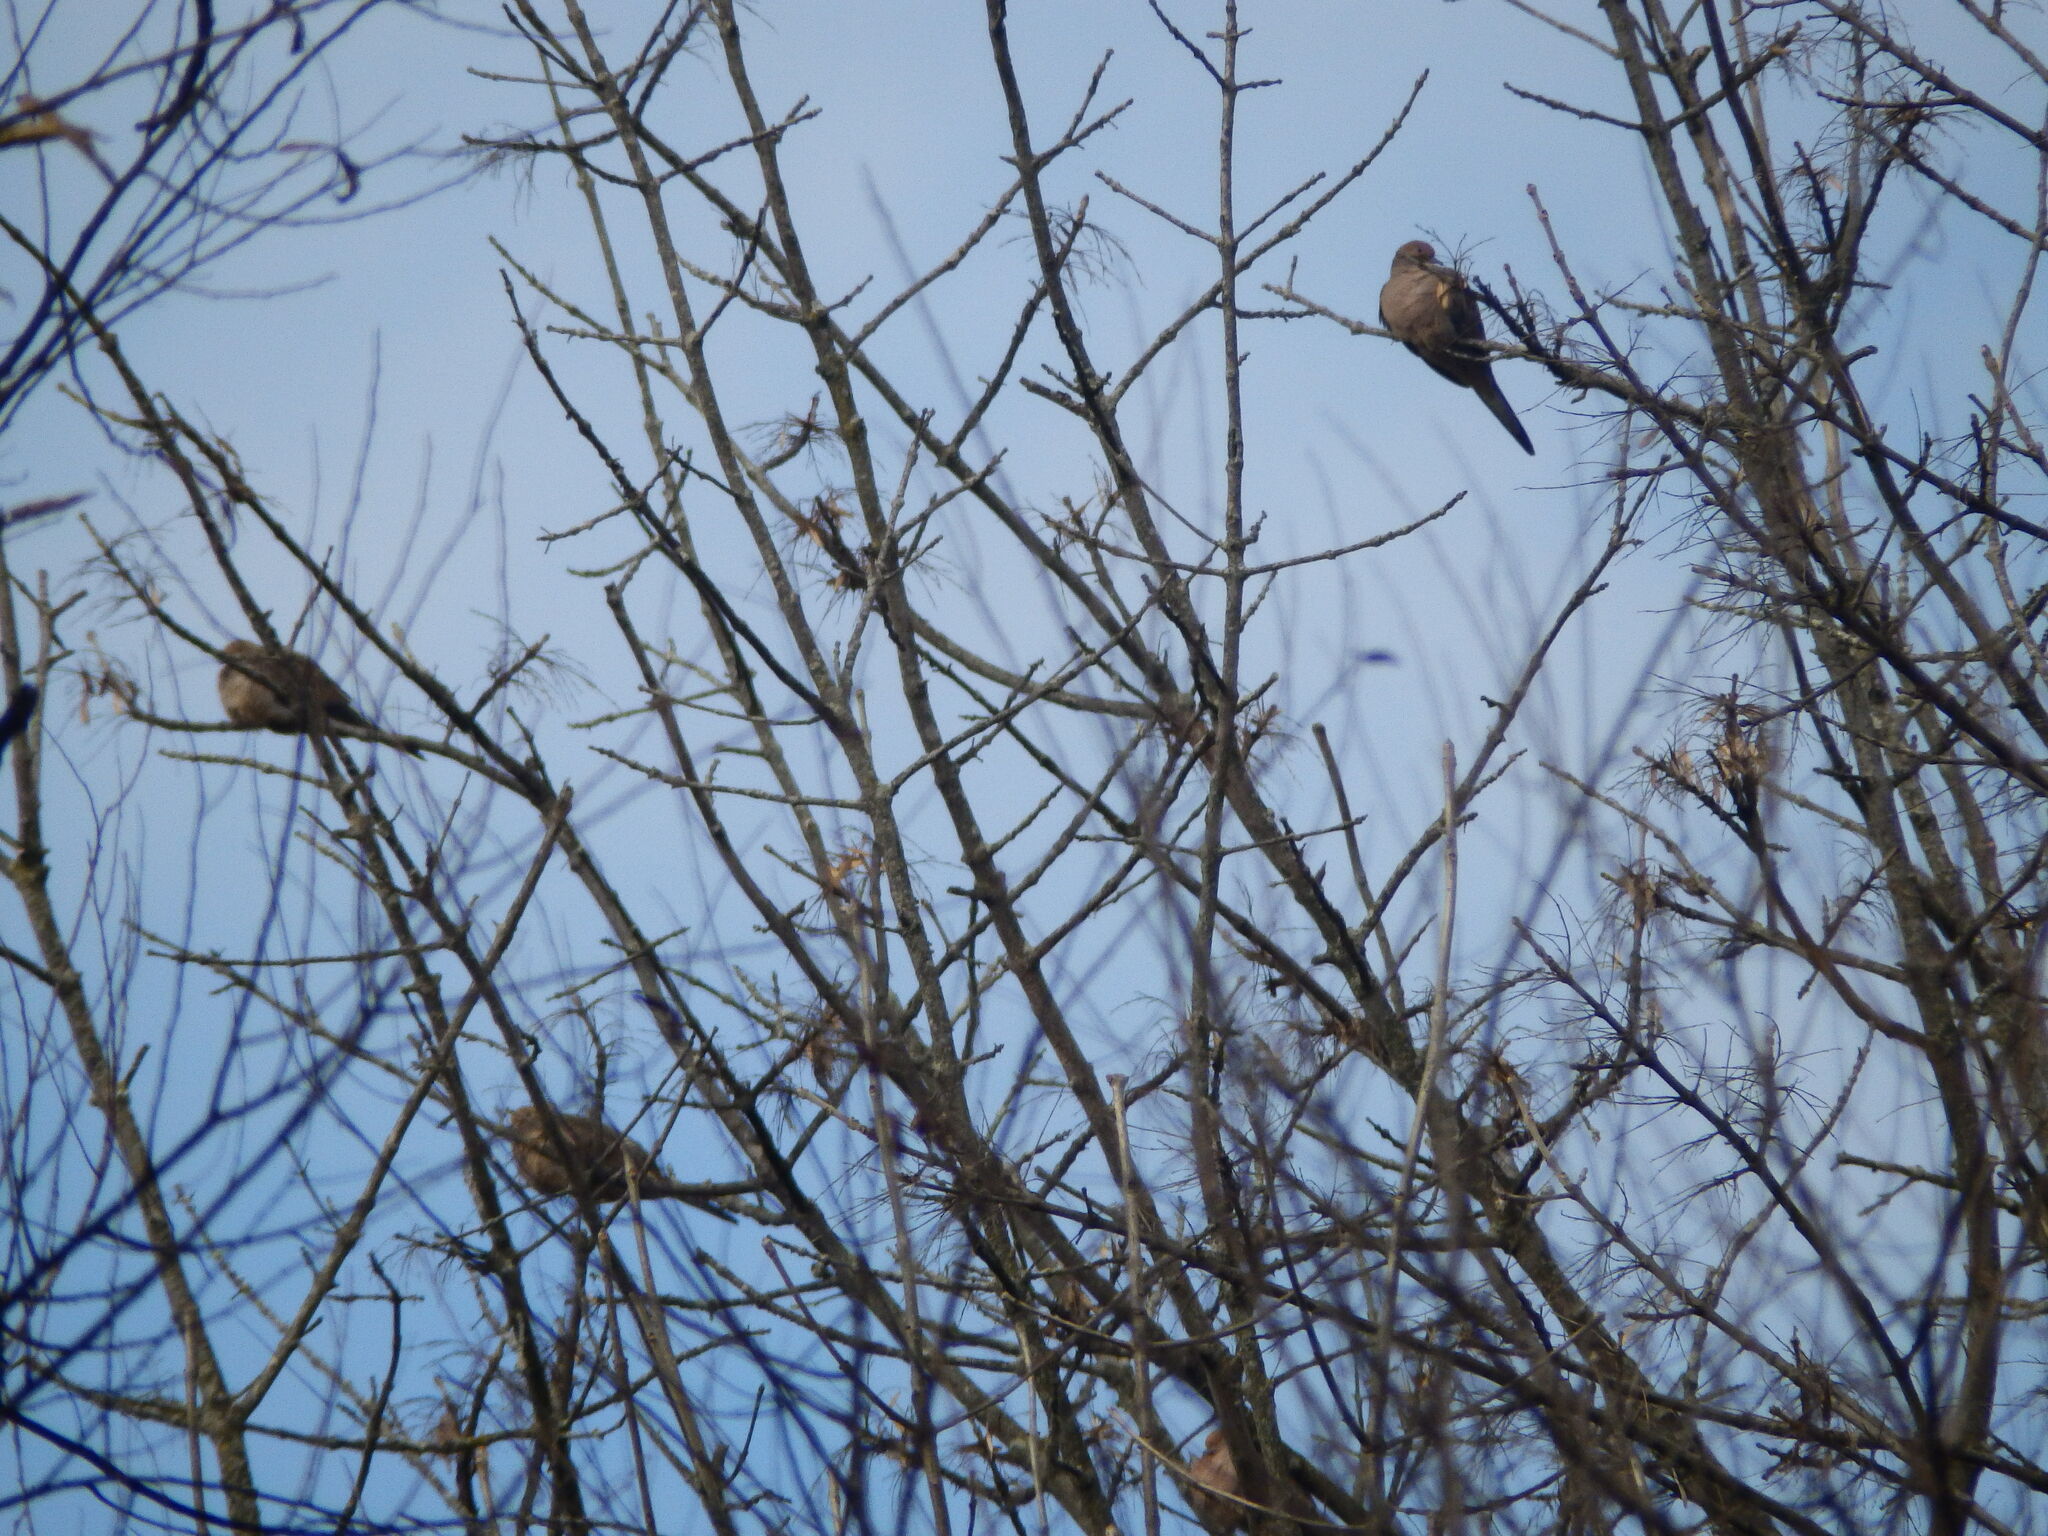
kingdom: Animalia
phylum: Chordata
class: Aves
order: Columbiformes
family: Columbidae
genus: Zenaida
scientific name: Zenaida macroura
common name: Mourning dove
